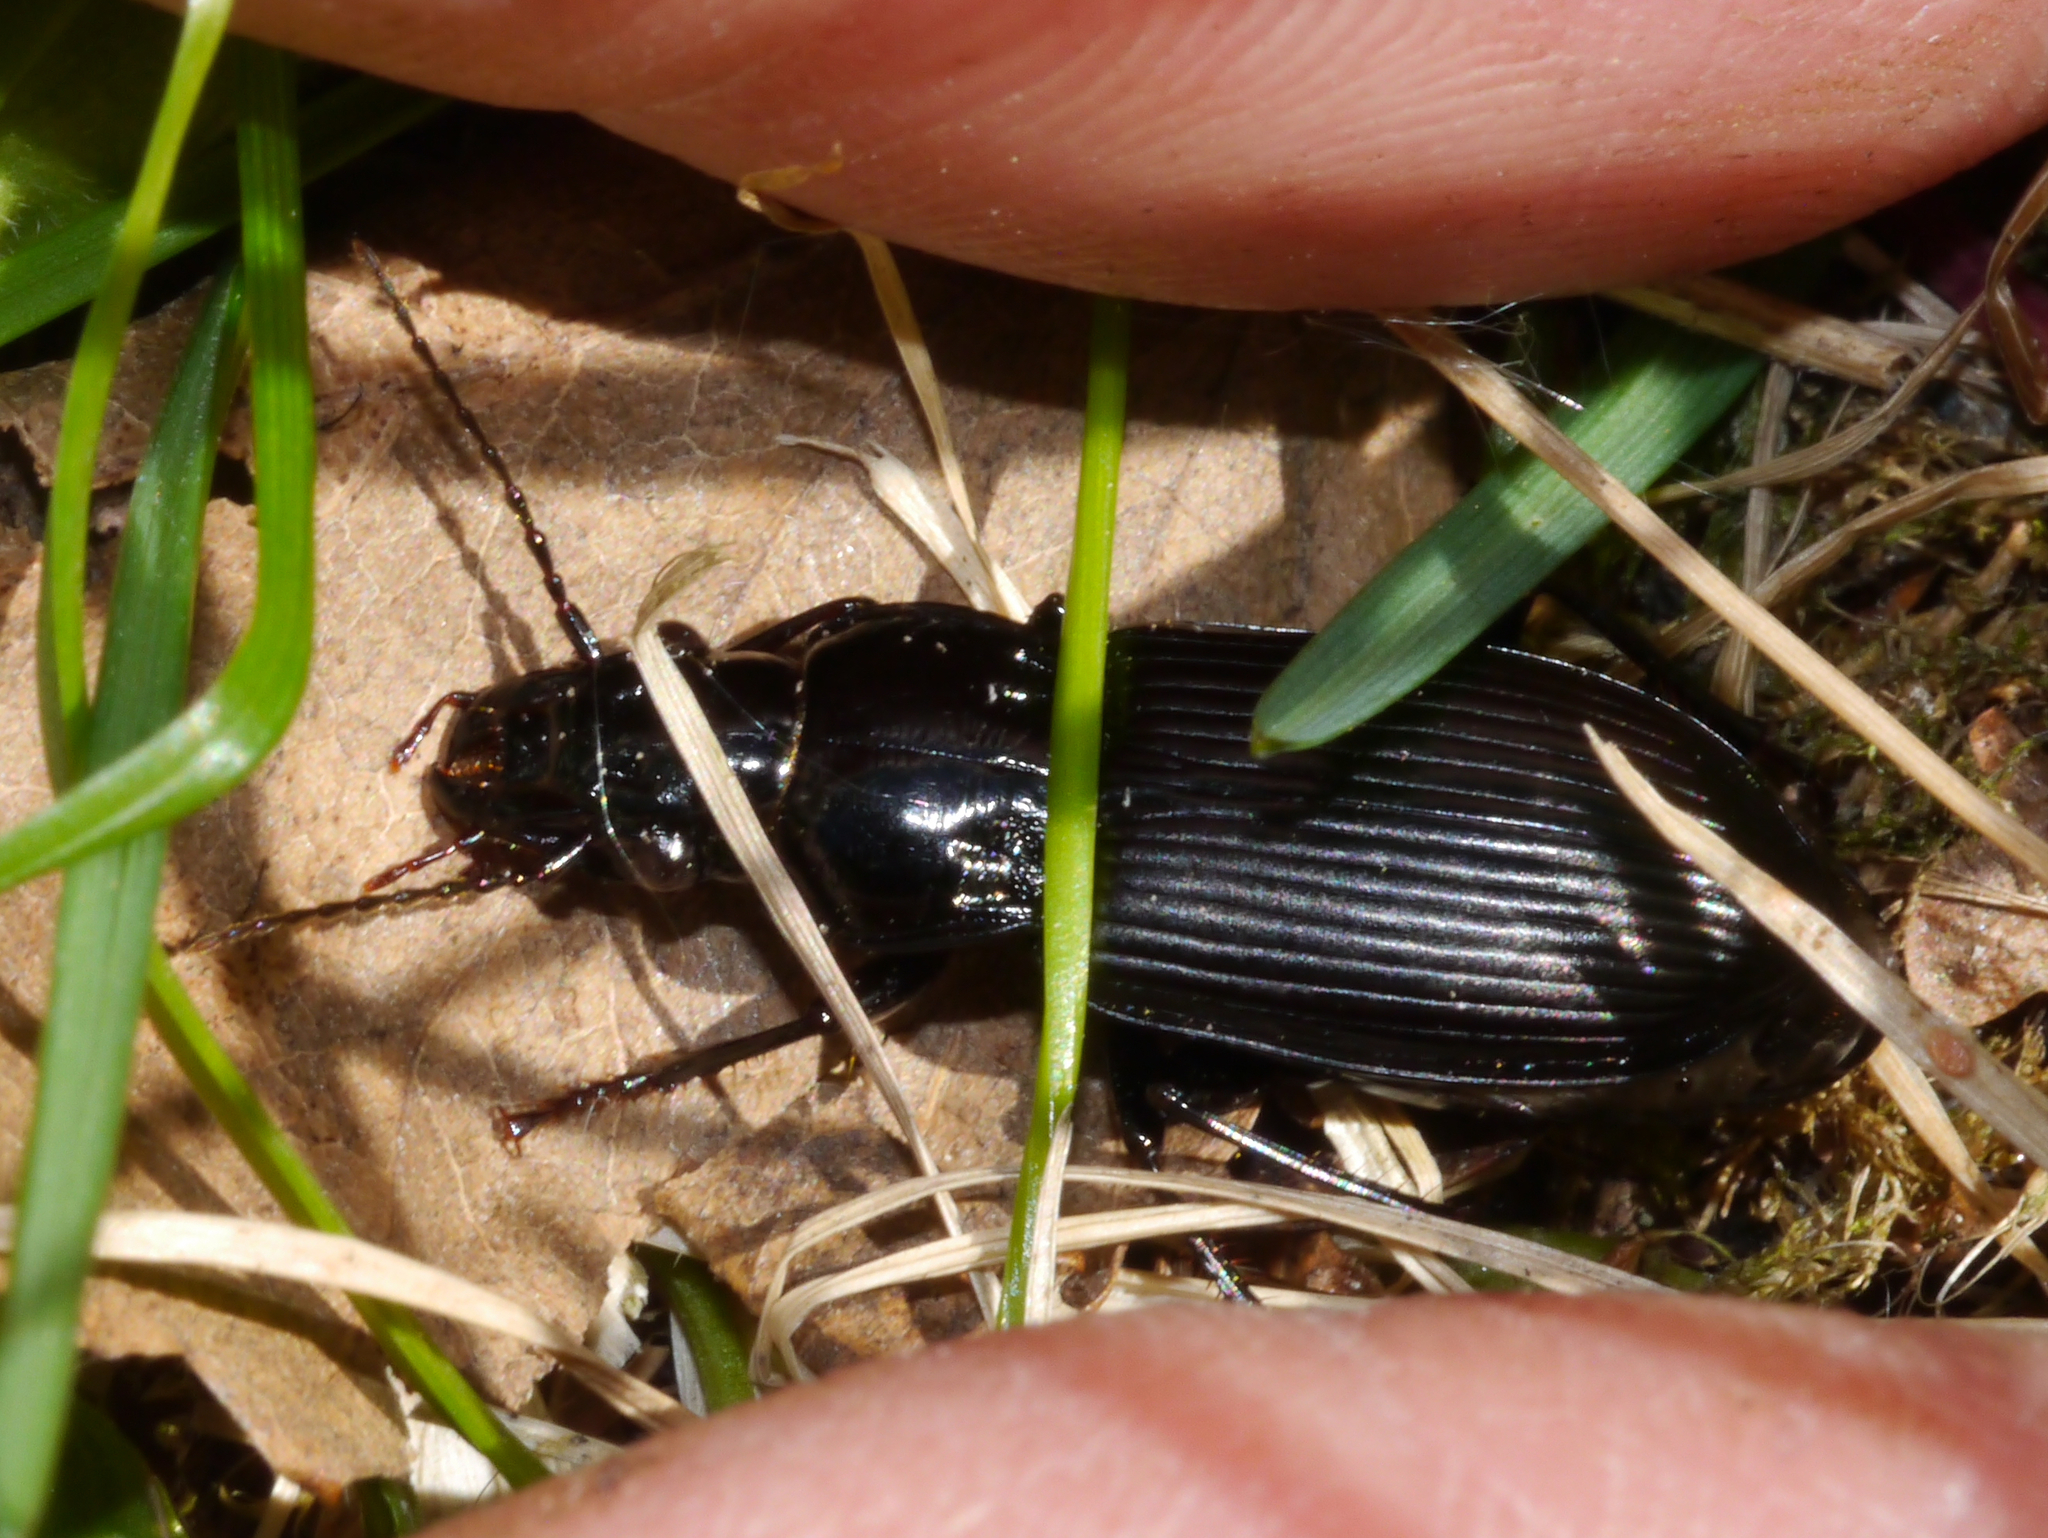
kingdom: Animalia
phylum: Arthropoda
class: Insecta
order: Coleoptera
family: Carabidae
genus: Pterostichus
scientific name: Pterostichus melanarius
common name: European dark harp ground beetle
